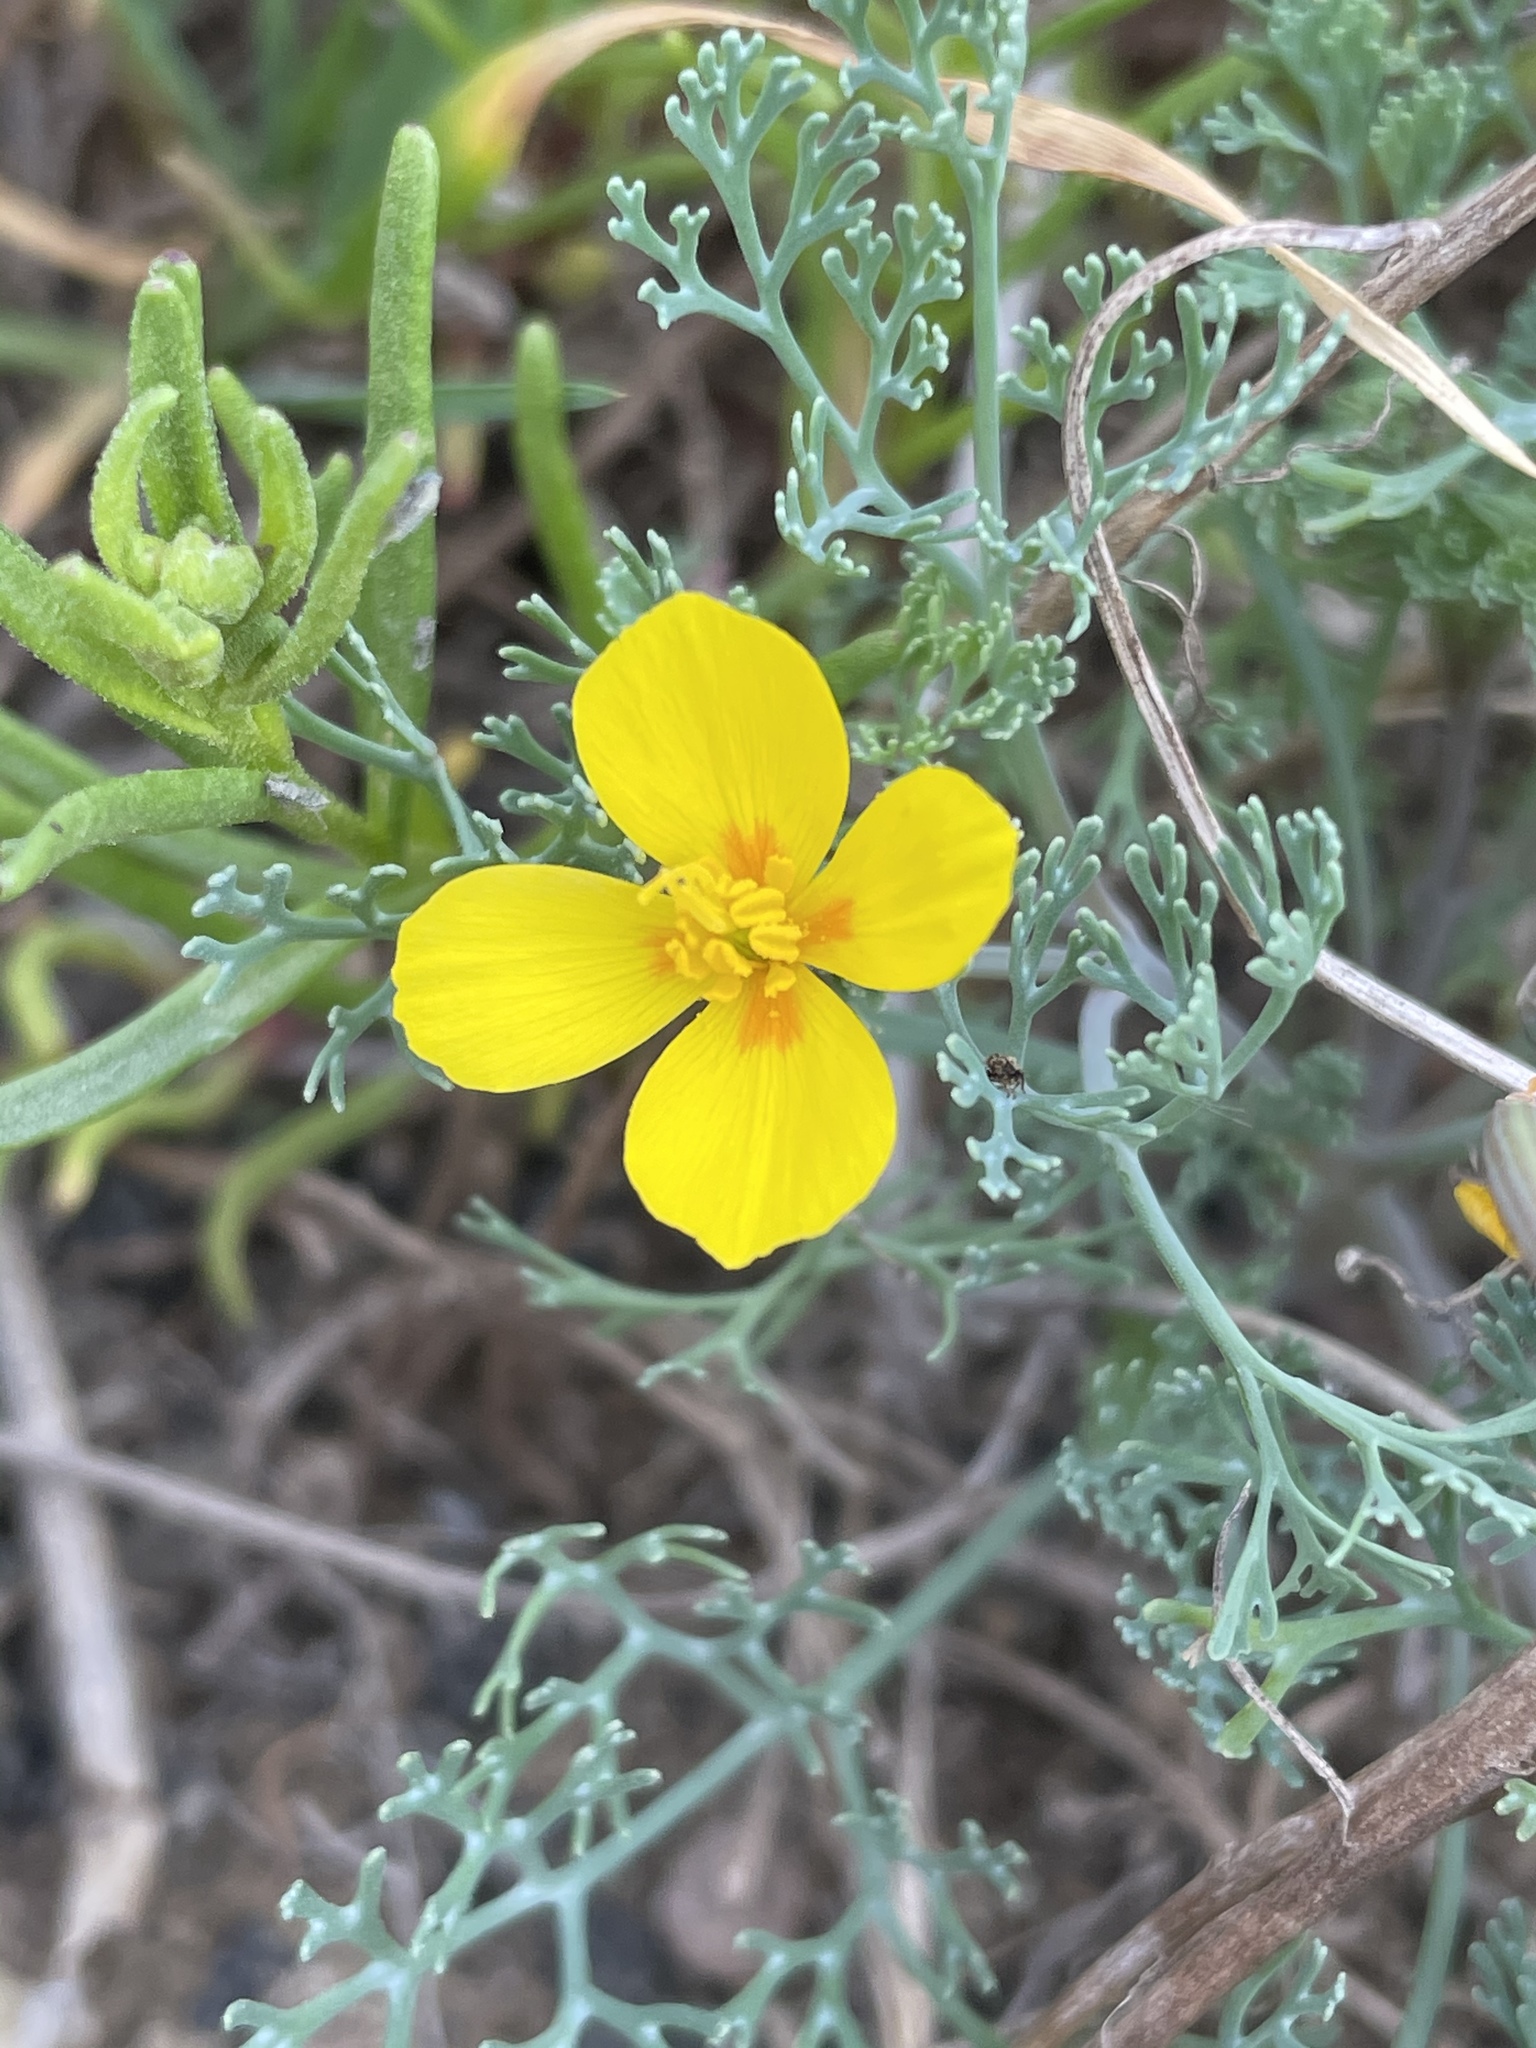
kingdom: Plantae
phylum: Tracheophyta
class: Magnoliopsida
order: Ranunculales
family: Papaveraceae
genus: Eschscholzia
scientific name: Eschscholzia ramosa
